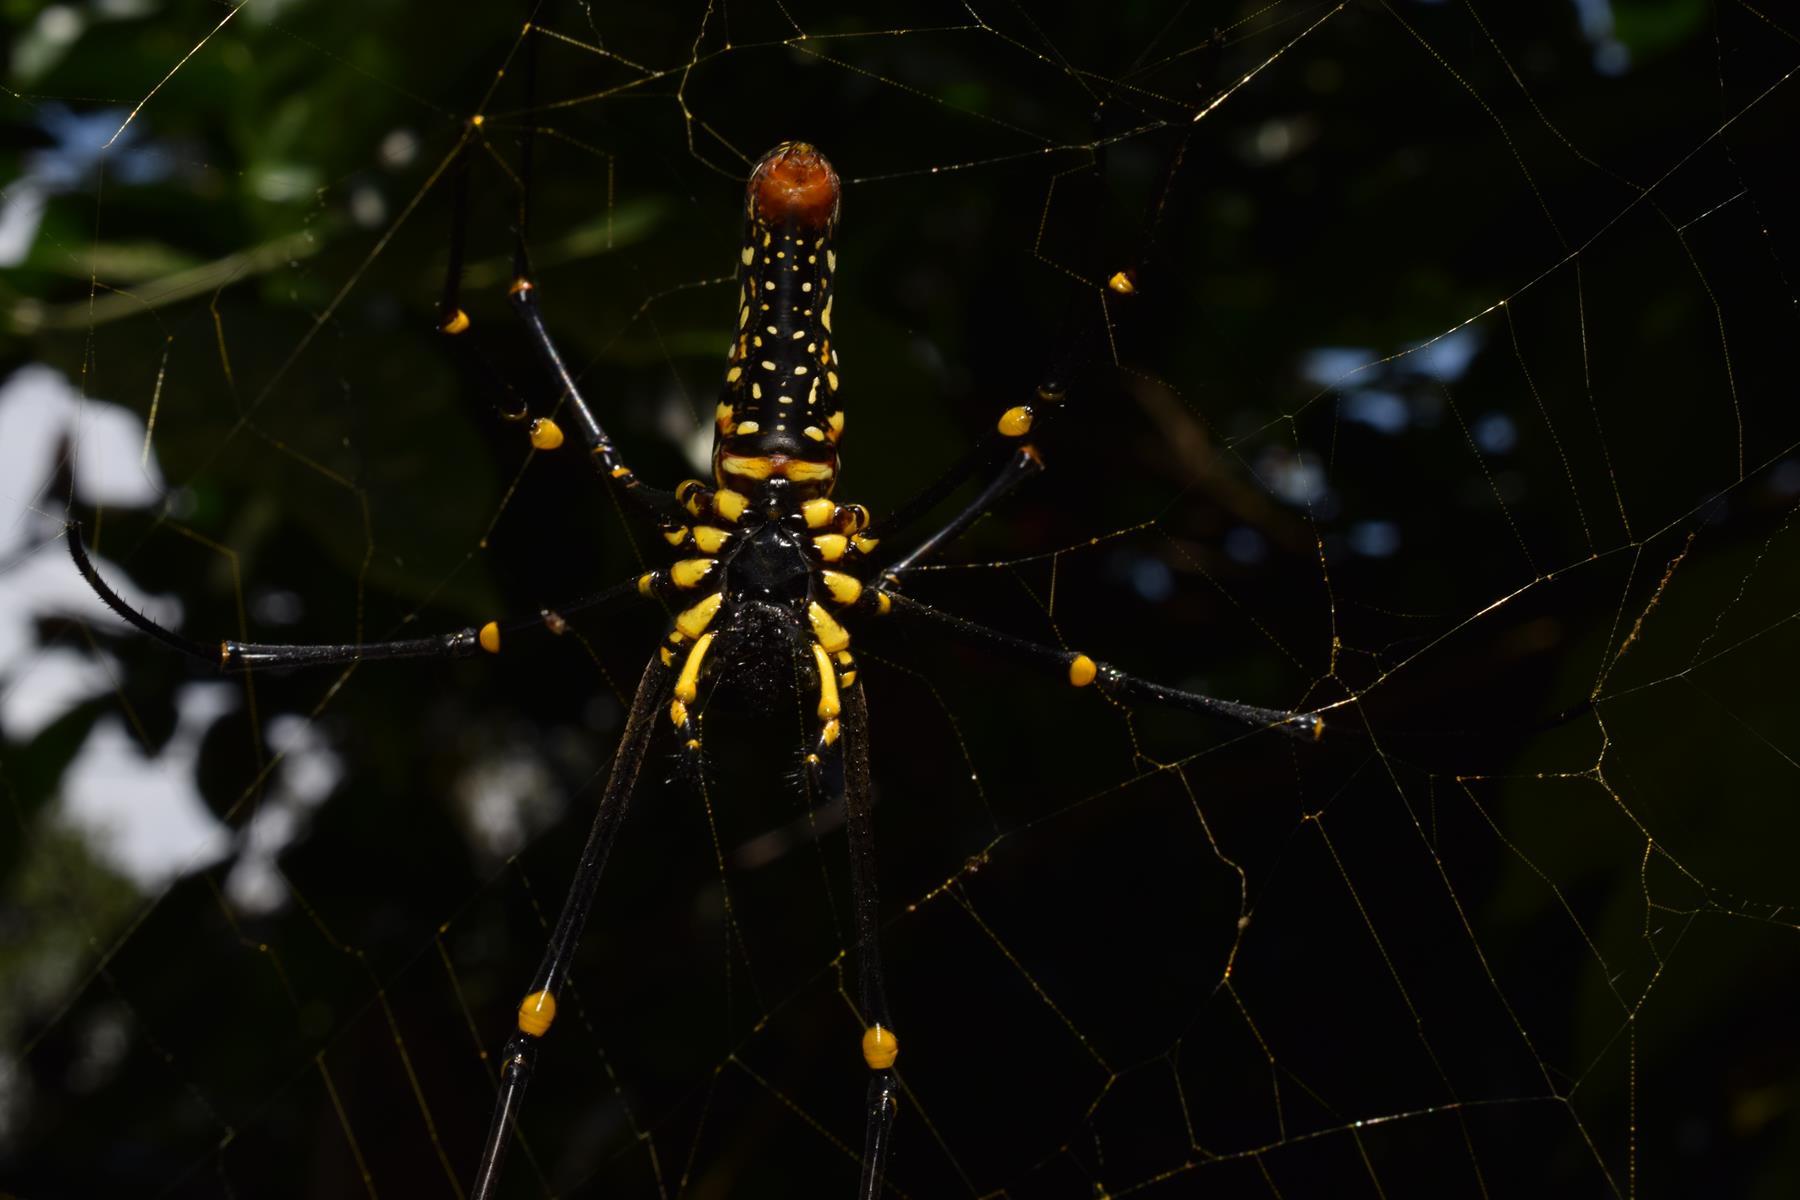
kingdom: Animalia
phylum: Arthropoda
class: Arachnida
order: Araneae
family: Araneidae
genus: Nephila
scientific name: Nephila pilipes
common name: Giant golden orb weaver
